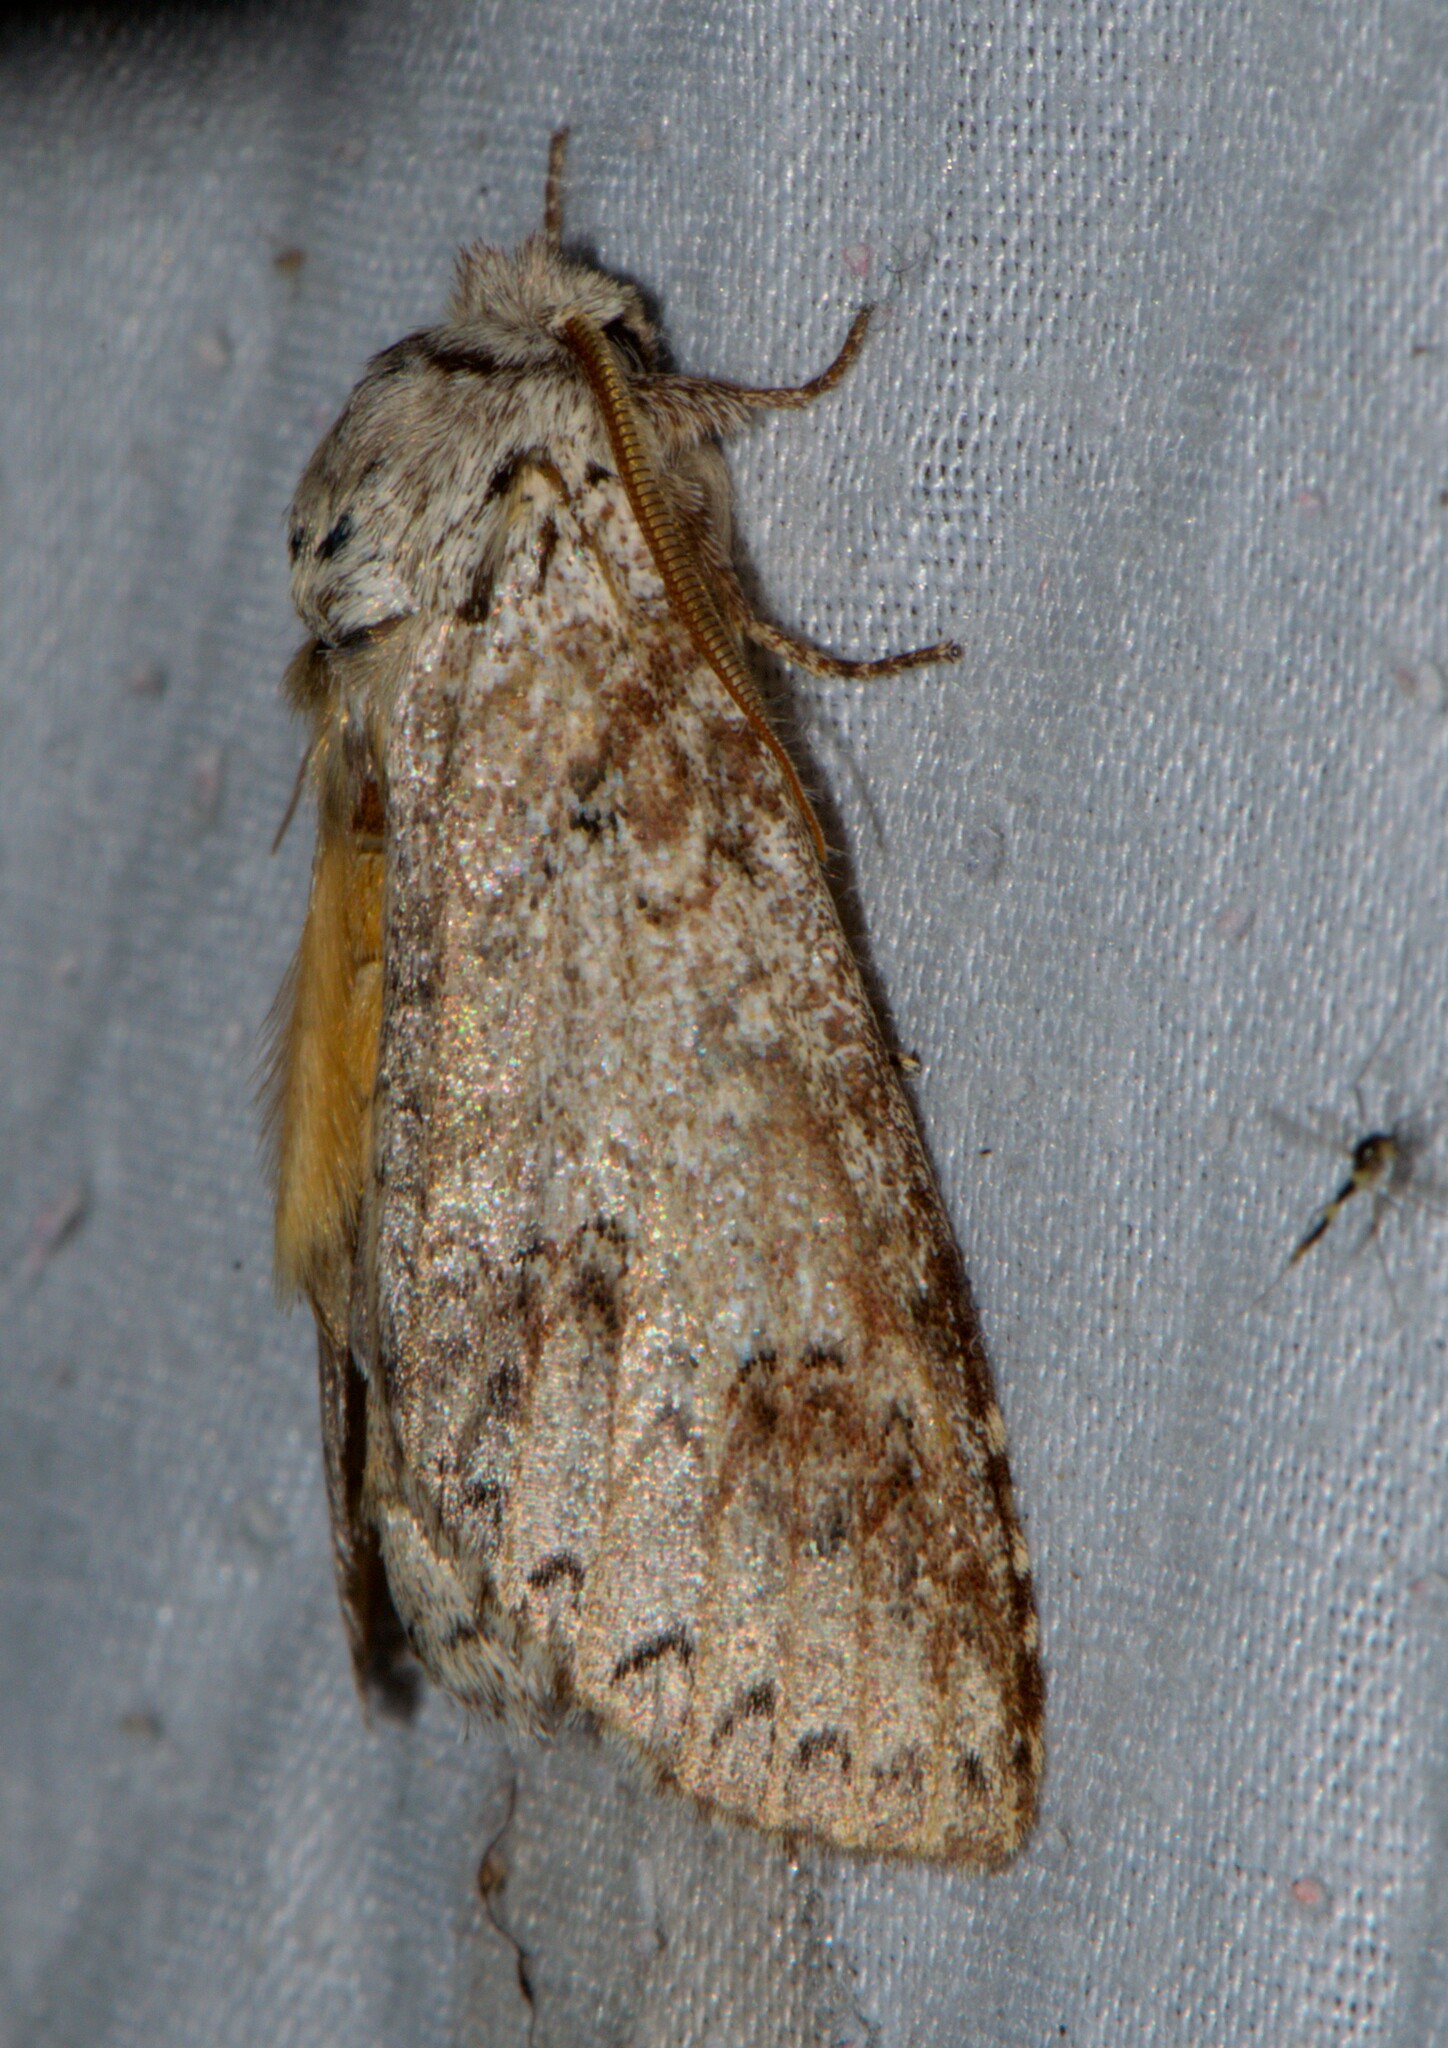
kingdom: Animalia
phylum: Arthropoda
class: Insecta
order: Lepidoptera
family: Notodontidae
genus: Pseudofentonia
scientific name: Pseudofentonia argentifera
